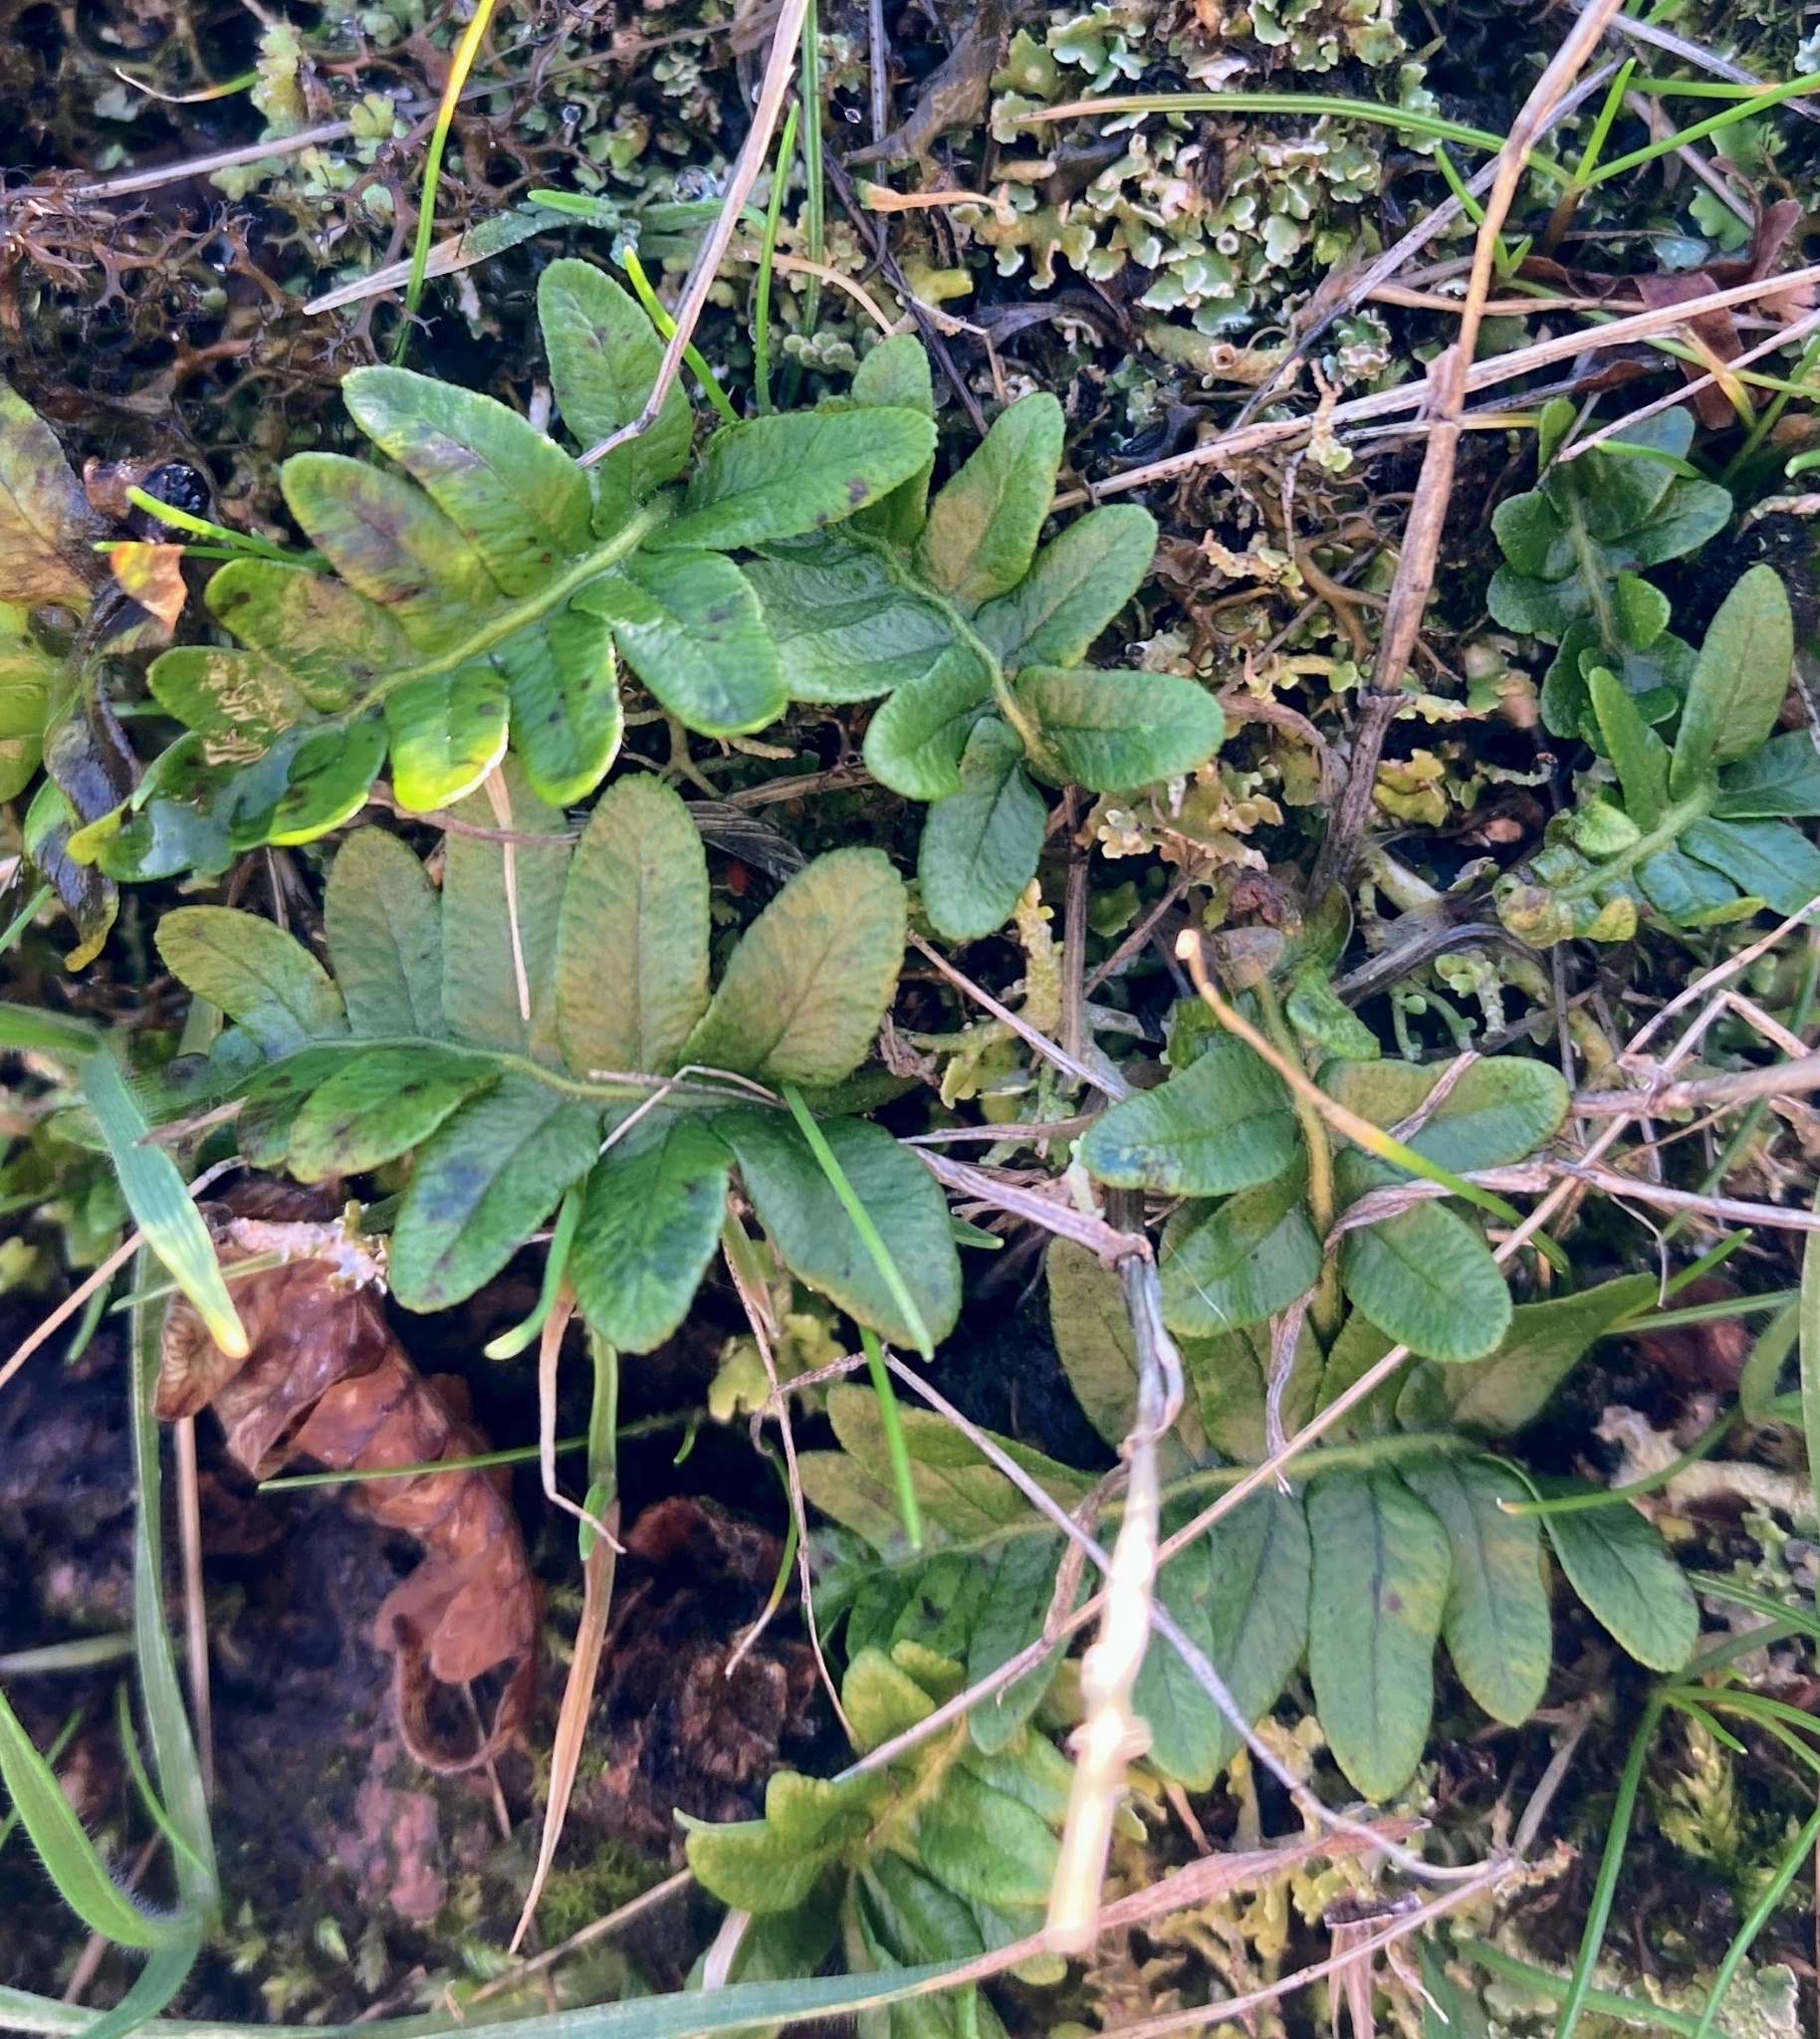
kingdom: Plantae
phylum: Tracheophyta
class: Polypodiopsida
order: Polypodiales
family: Polypodiaceae
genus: Polypodium
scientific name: Polypodium glycyrrhiza
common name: Licorice fern
